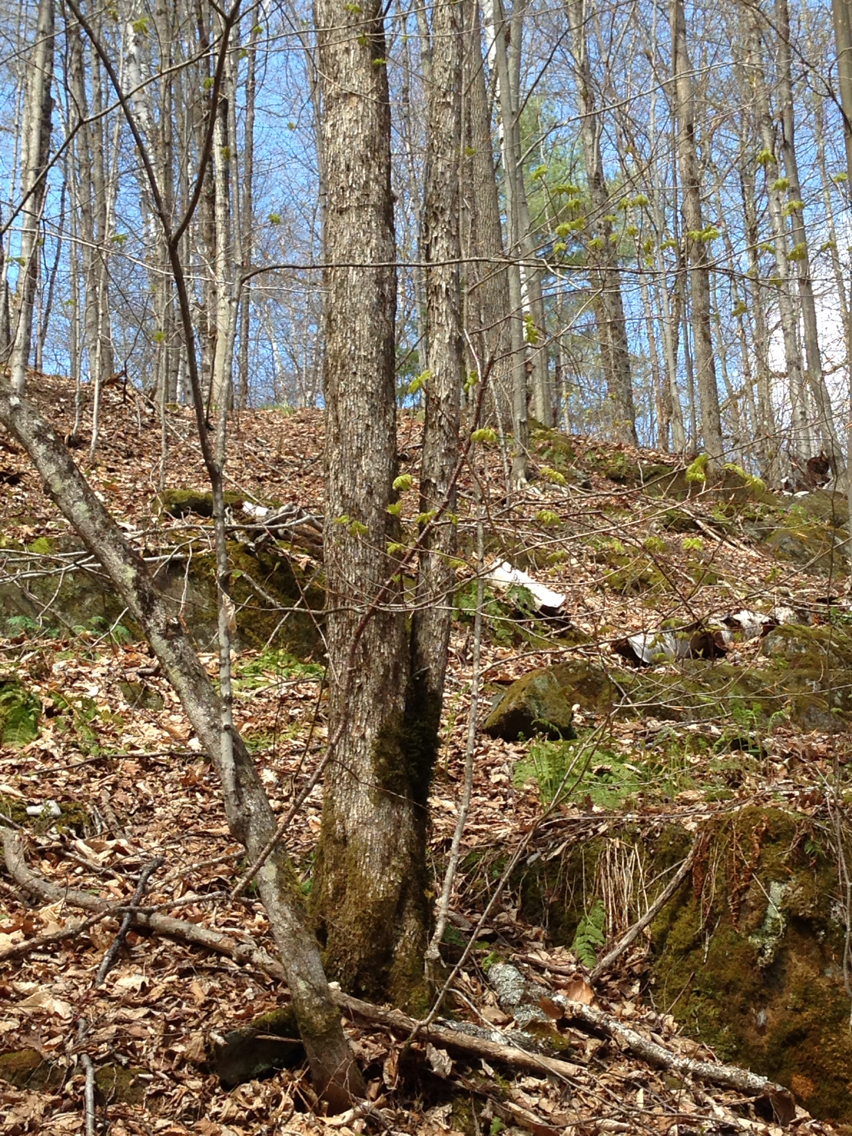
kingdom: Plantae
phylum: Tracheophyta
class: Magnoliopsida
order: Fagales
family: Betulaceae
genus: Ostrya
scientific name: Ostrya virginiana
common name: Ironwood
